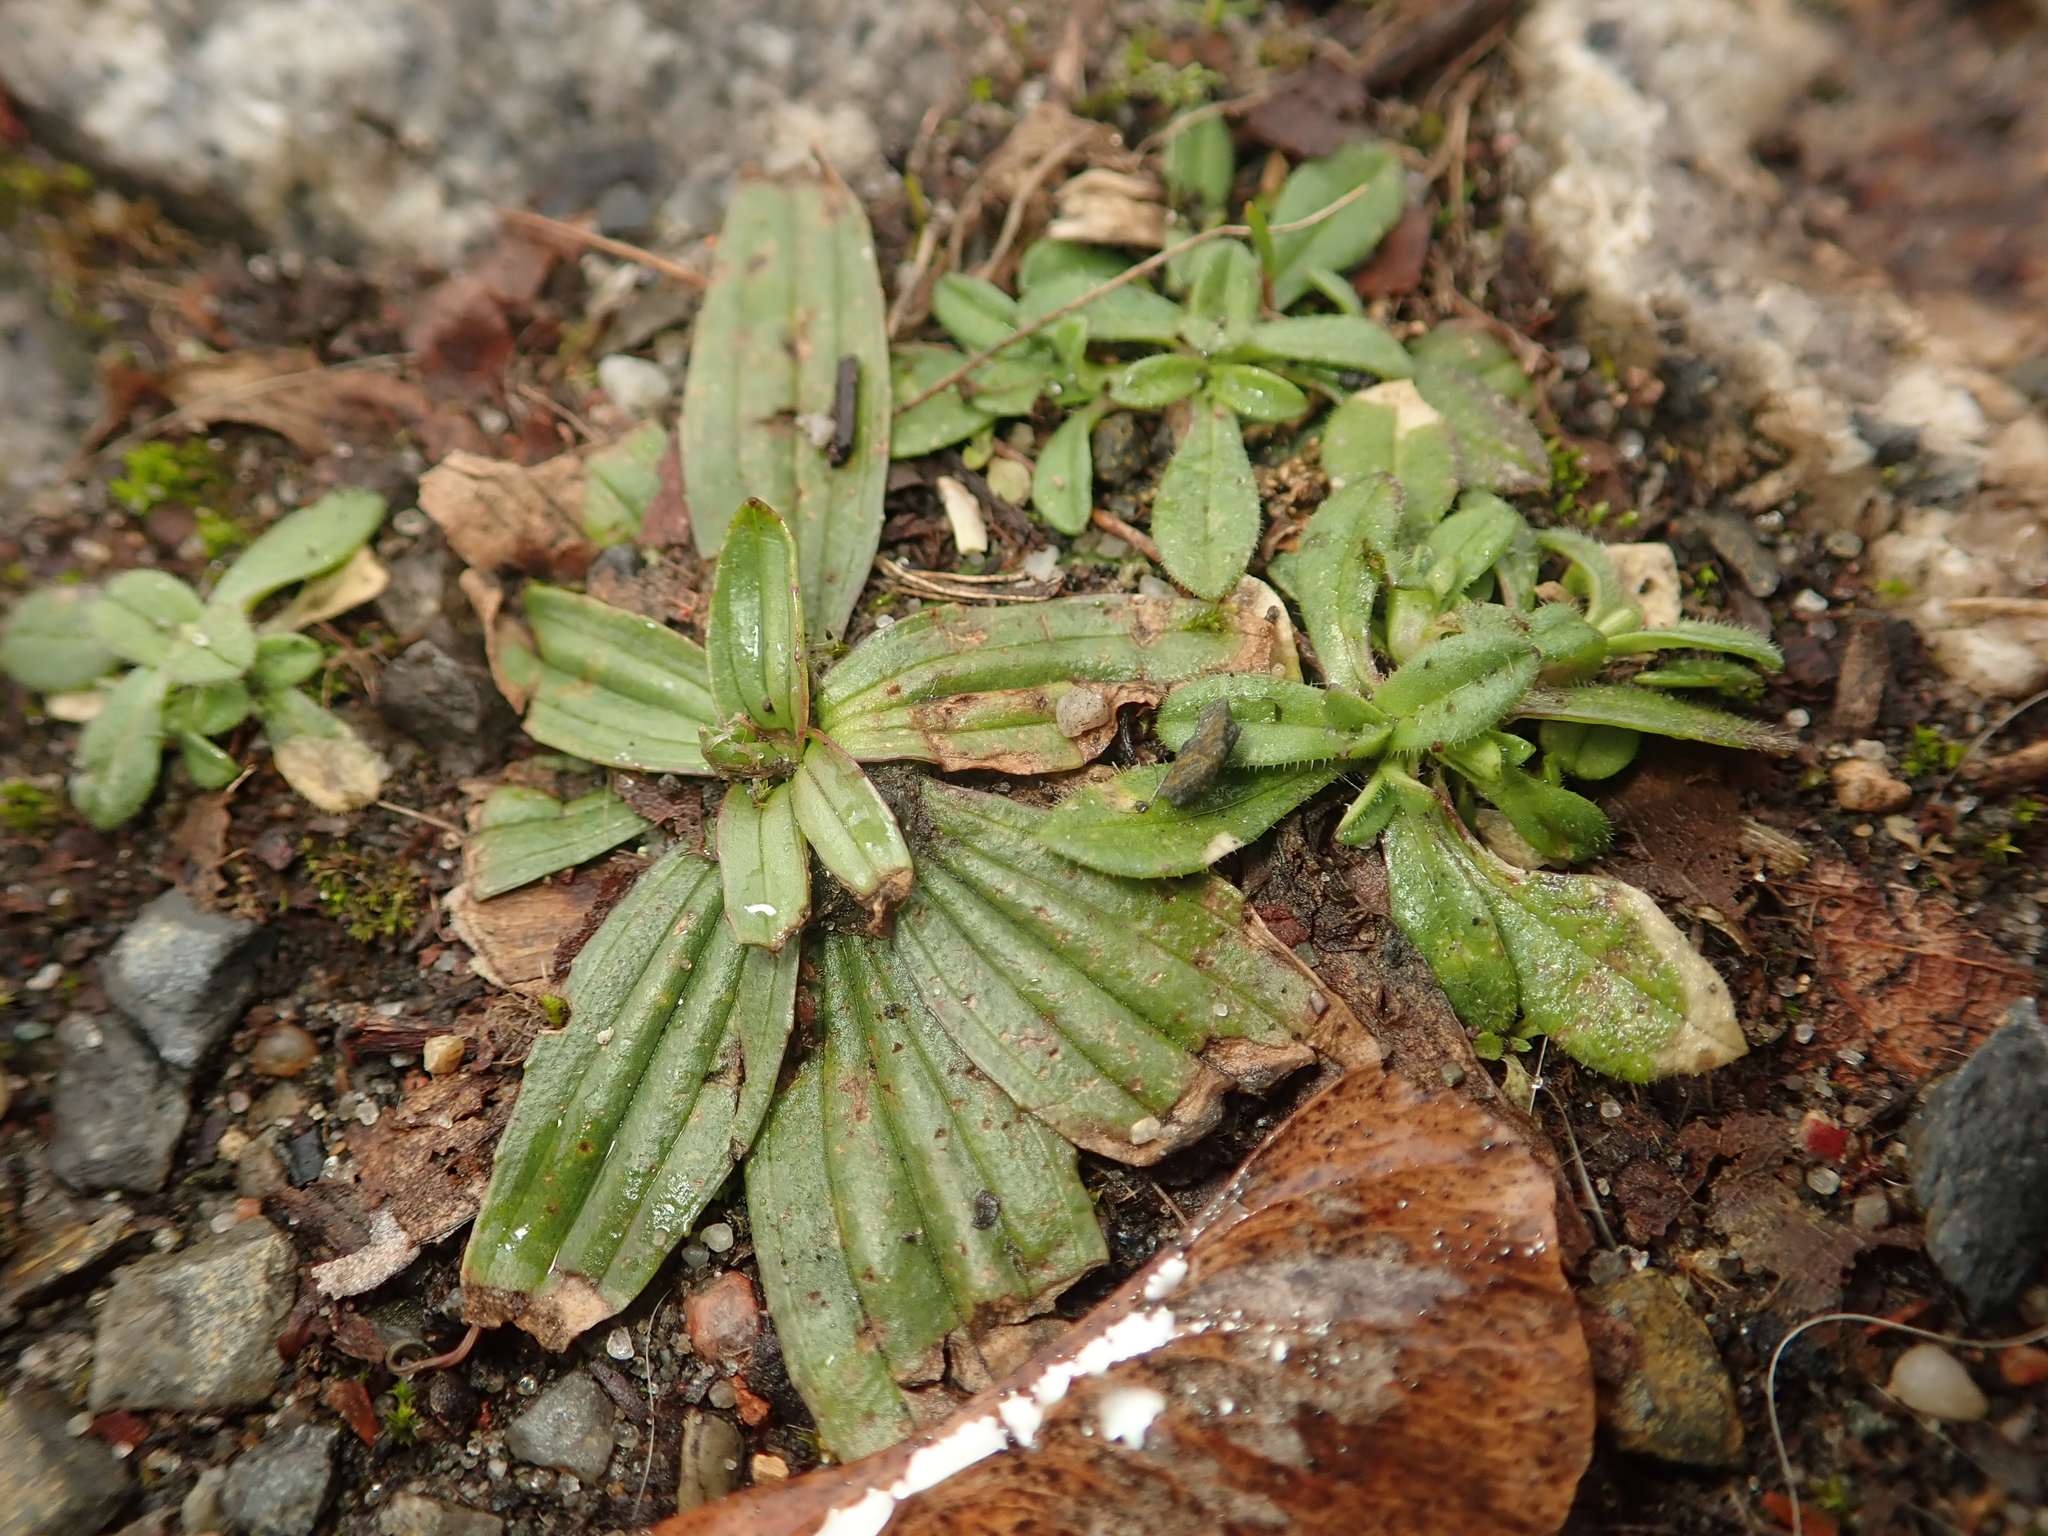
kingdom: Plantae
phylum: Tracheophyta
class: Magnoliopsida
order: Lamiales
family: Plantaginaceae
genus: Plantago
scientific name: Plantago lanceolata
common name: Ribwort plantain
